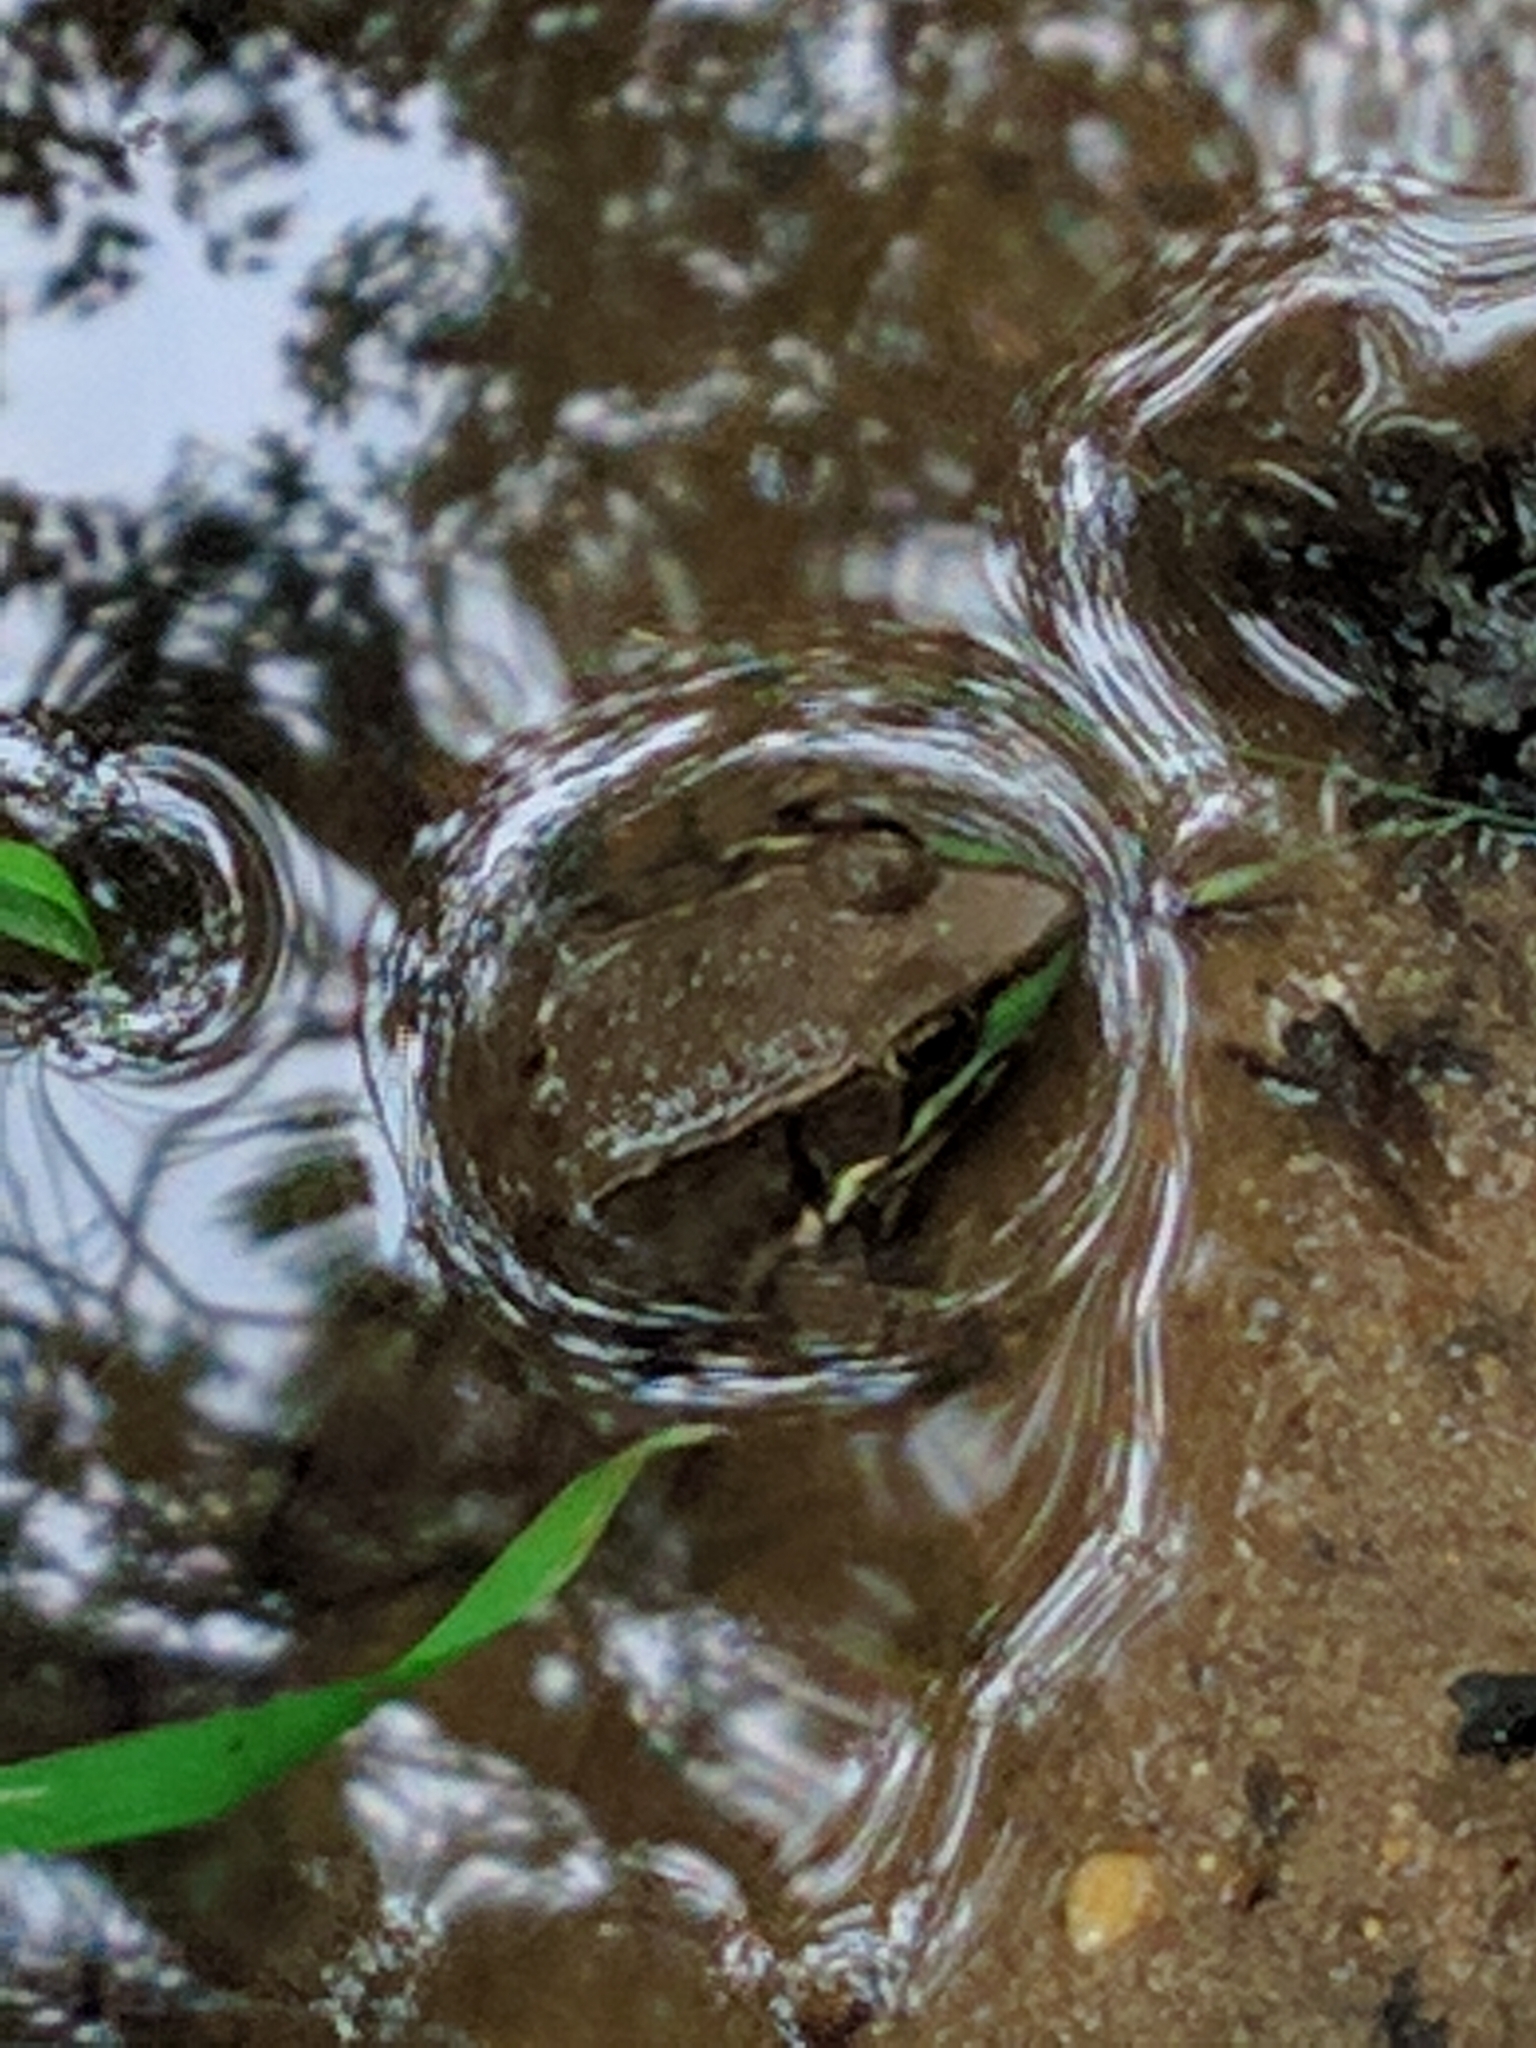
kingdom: Animalia
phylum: Chordata
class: Amphibia
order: Anura
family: Ranidae
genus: Lithobates
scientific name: Lithobates clamitans
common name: Green frog
